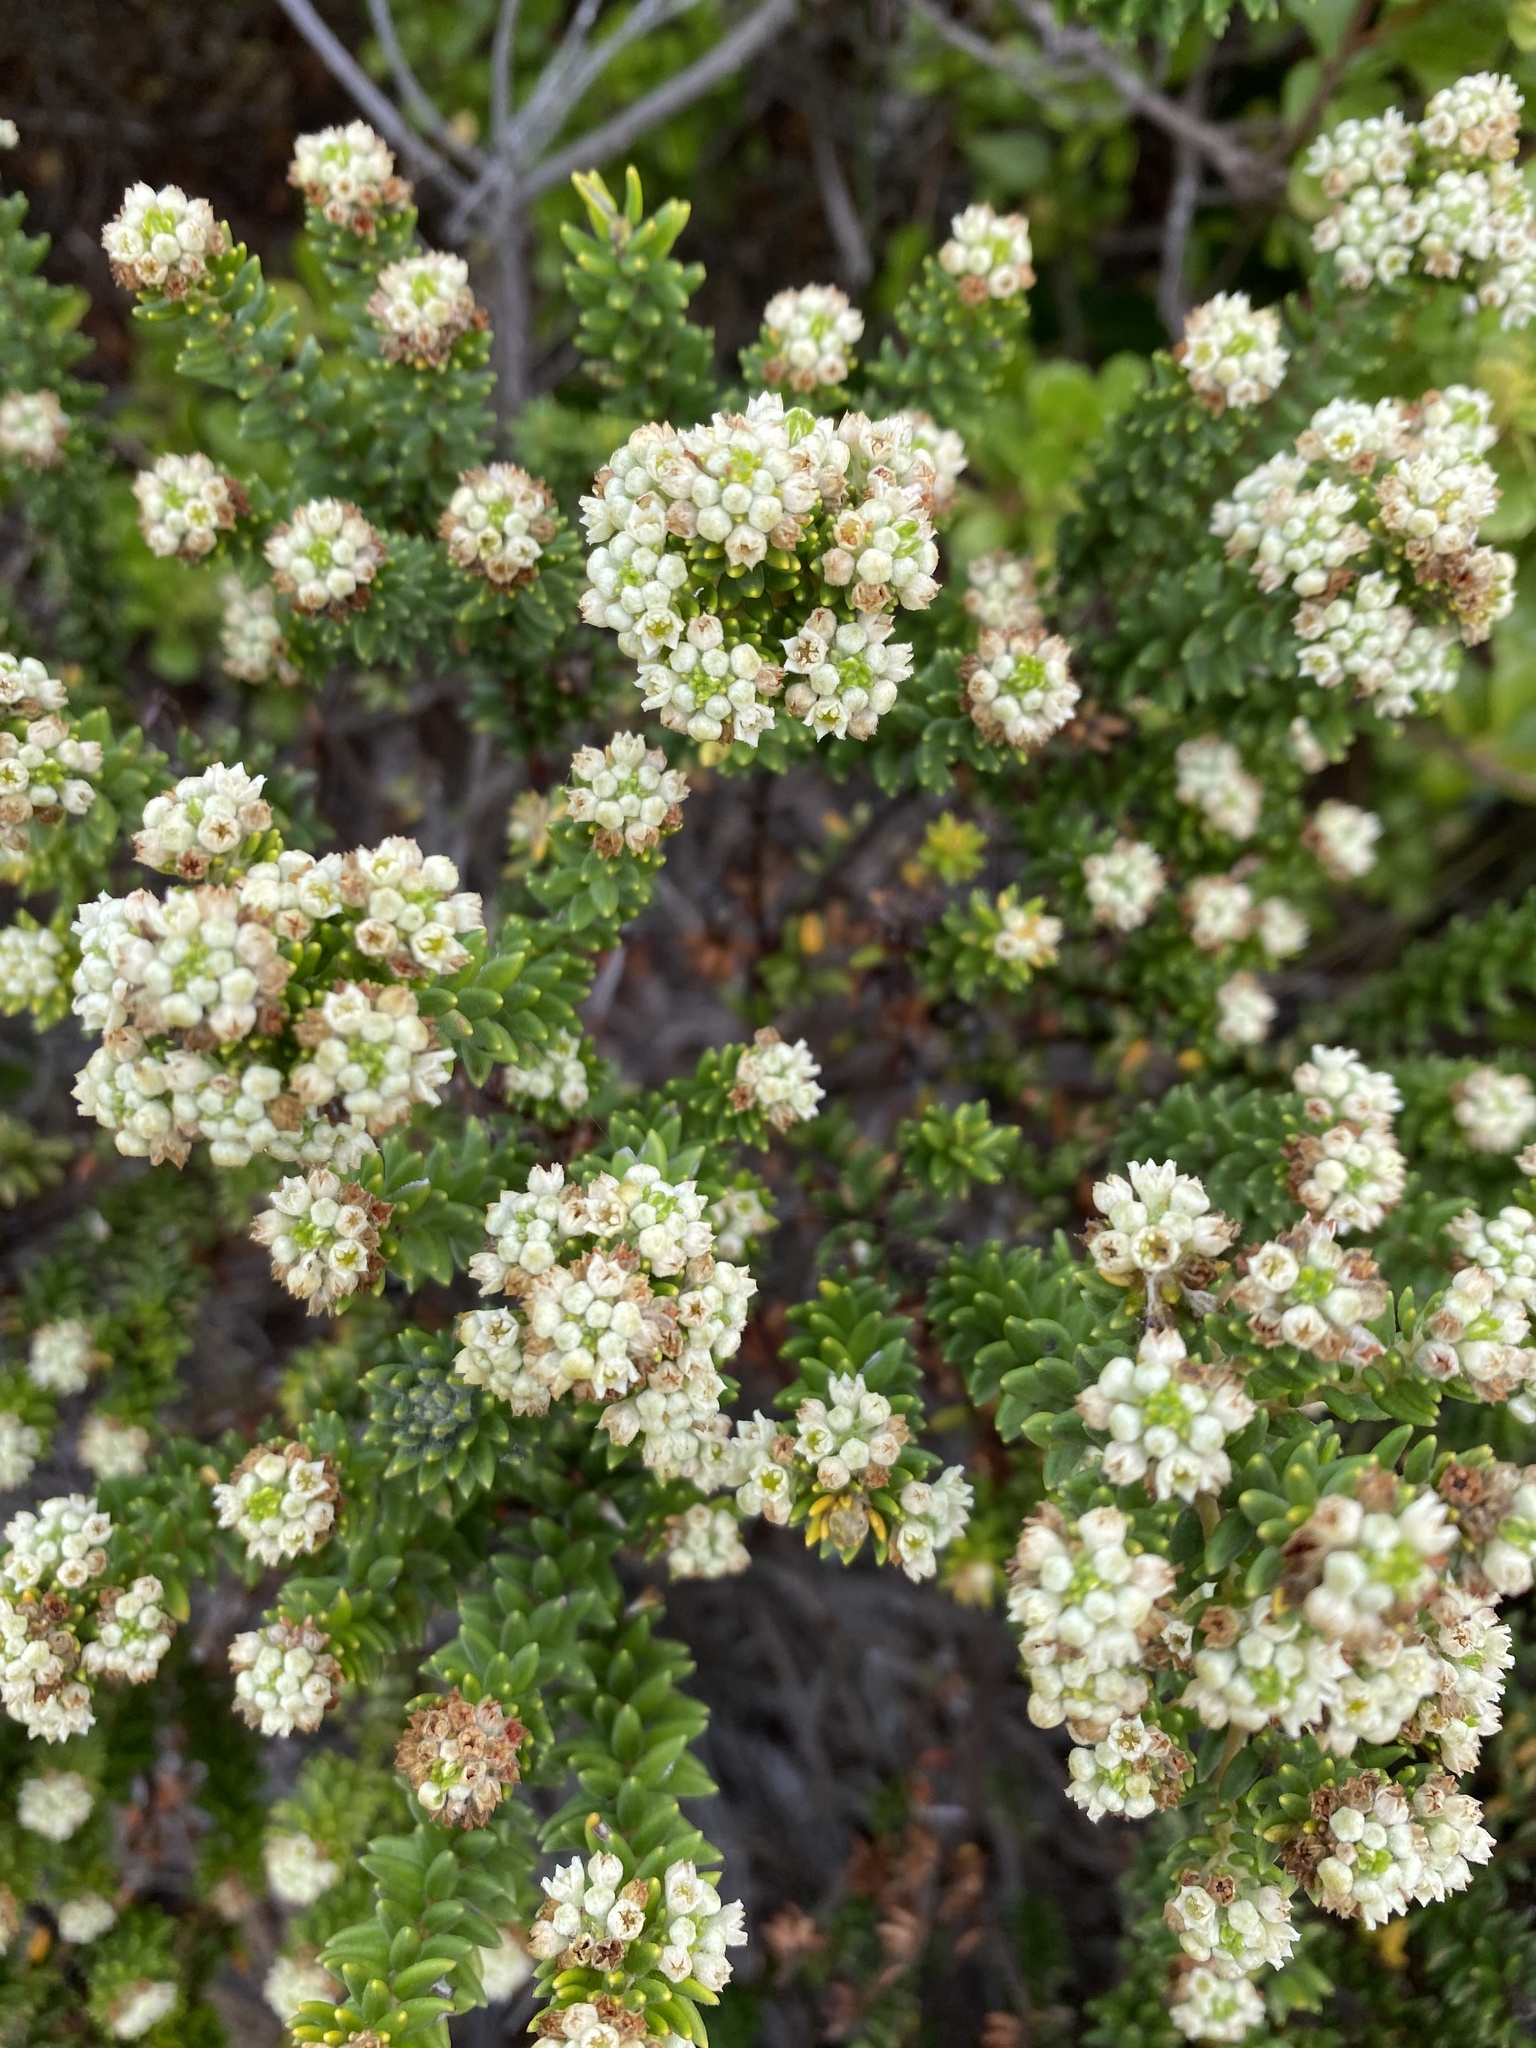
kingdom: Plantae
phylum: Tracheophyta
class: Magnoliopsida
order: Rosales
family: Rhamnaceae
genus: Phylica
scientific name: Phylica axillaris
